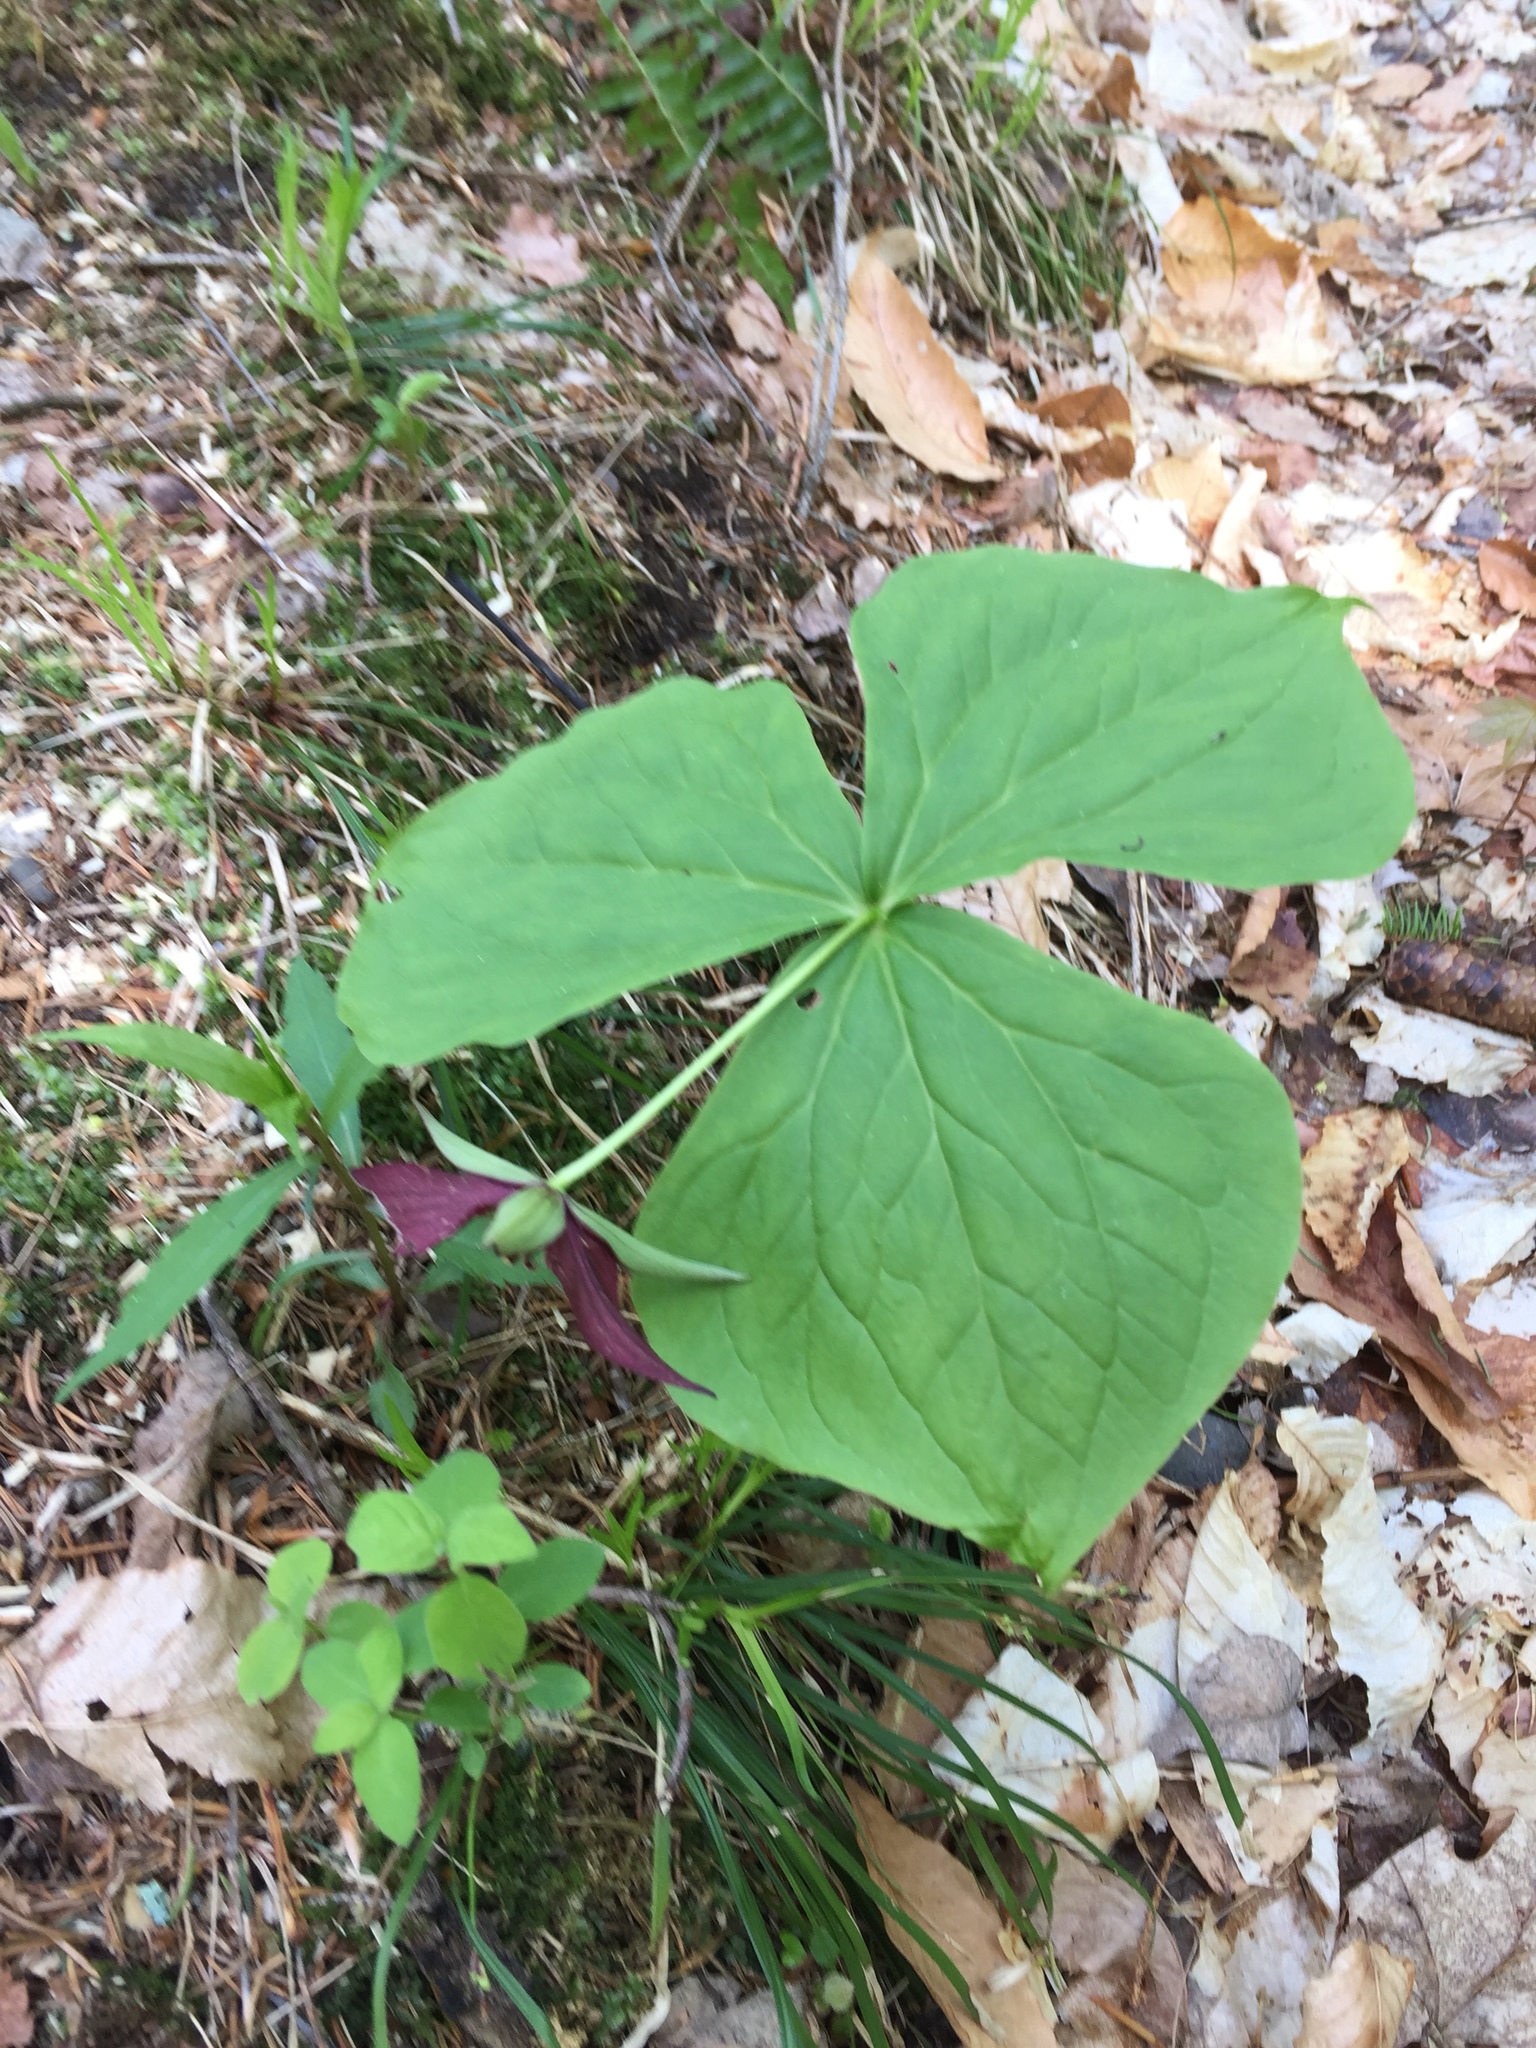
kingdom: Plantae
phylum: Tracheophyta
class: Liliopsida
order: Liliales
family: Melanthiaceae
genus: Trillium
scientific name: Trillium erectum
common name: Purple trillium
